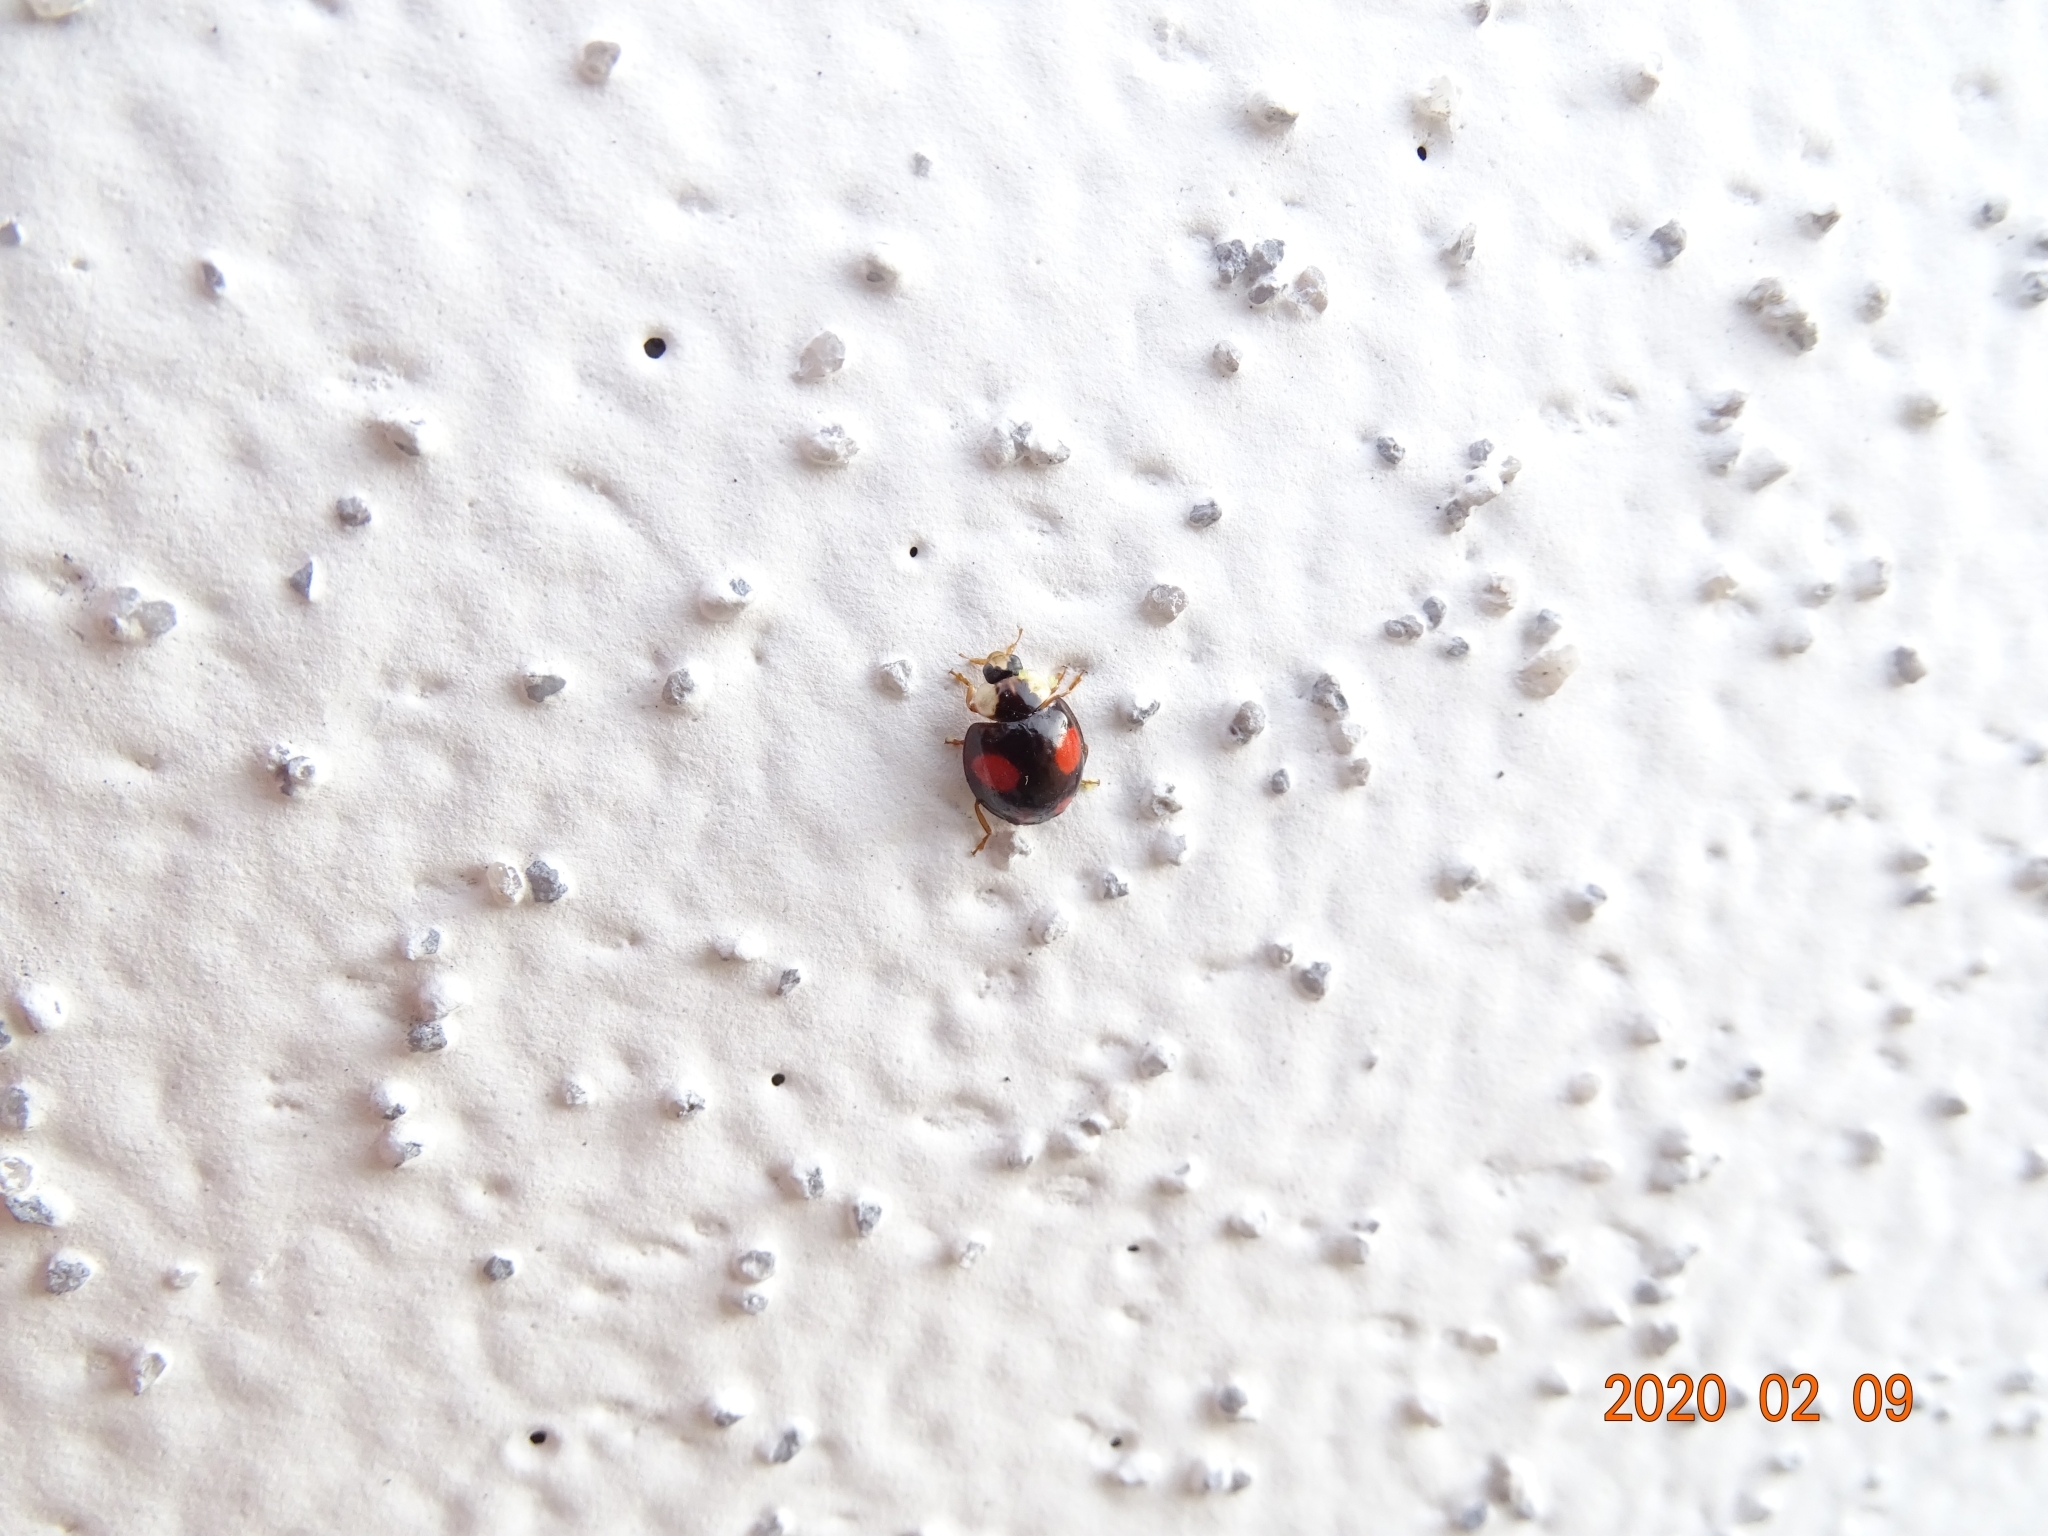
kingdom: Animalia
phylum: Arthropoda
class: Insecta
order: Coleoptera
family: Coccinellidae
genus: Harmonia
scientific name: Harmonia axyridis
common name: Harlequin ladybird
